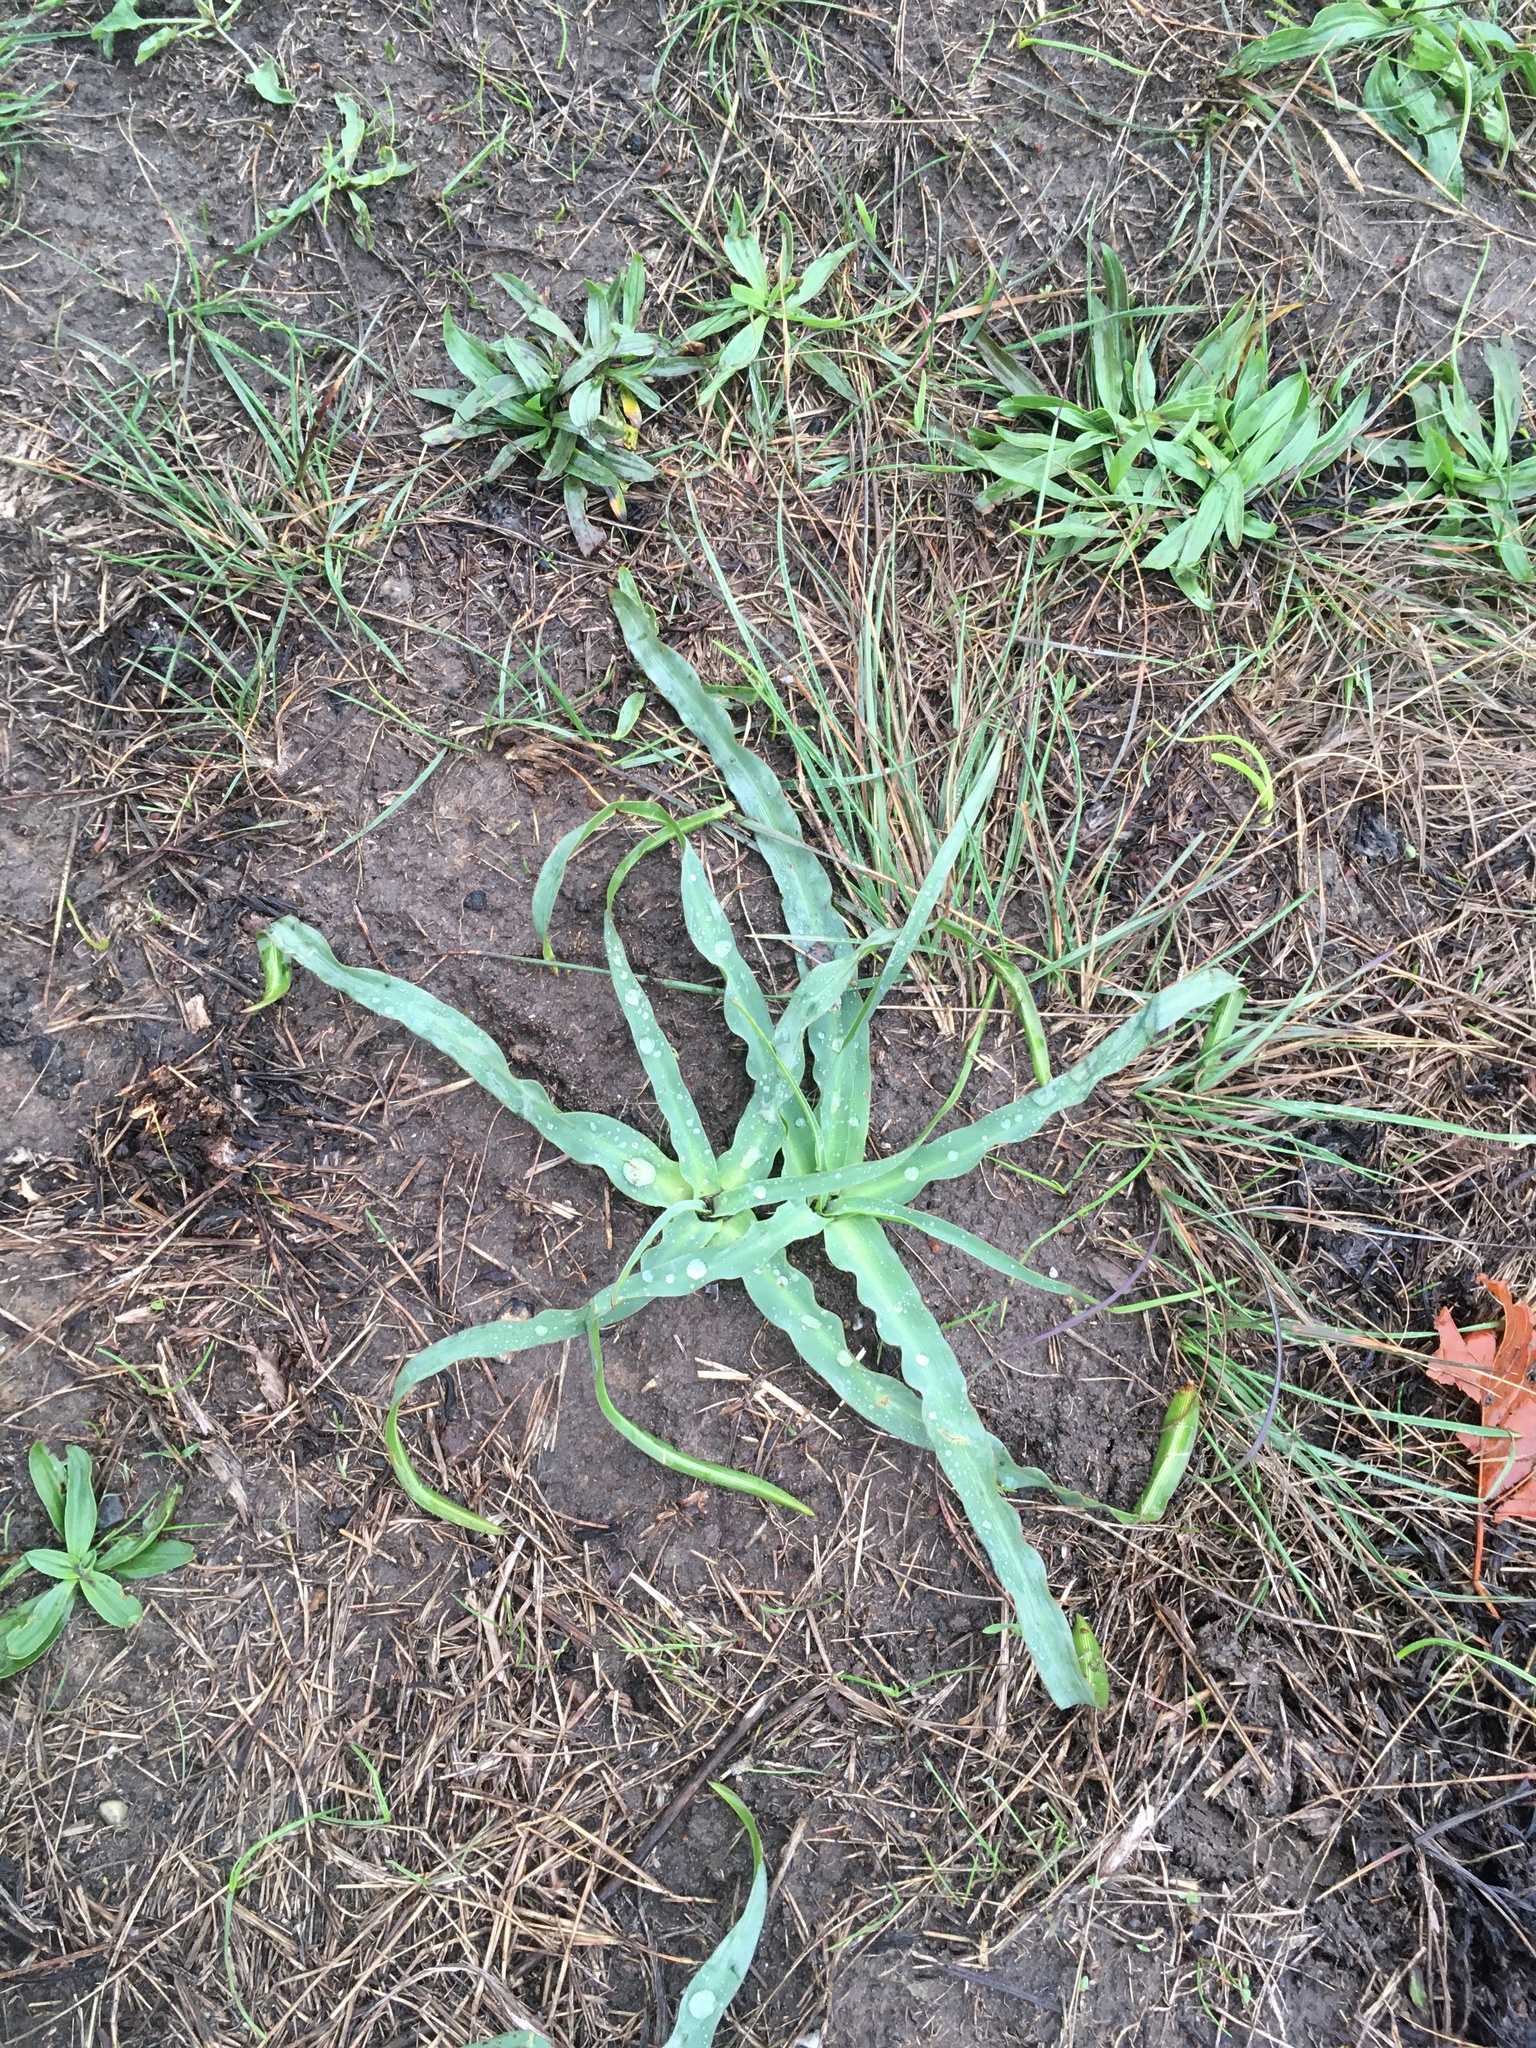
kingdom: Plantae
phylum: Tracheophyta
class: Liliopsida
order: Asparagales
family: Asparagaceae
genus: Chlorogalum
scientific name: Chlorogalum pomeridianum
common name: Amole
